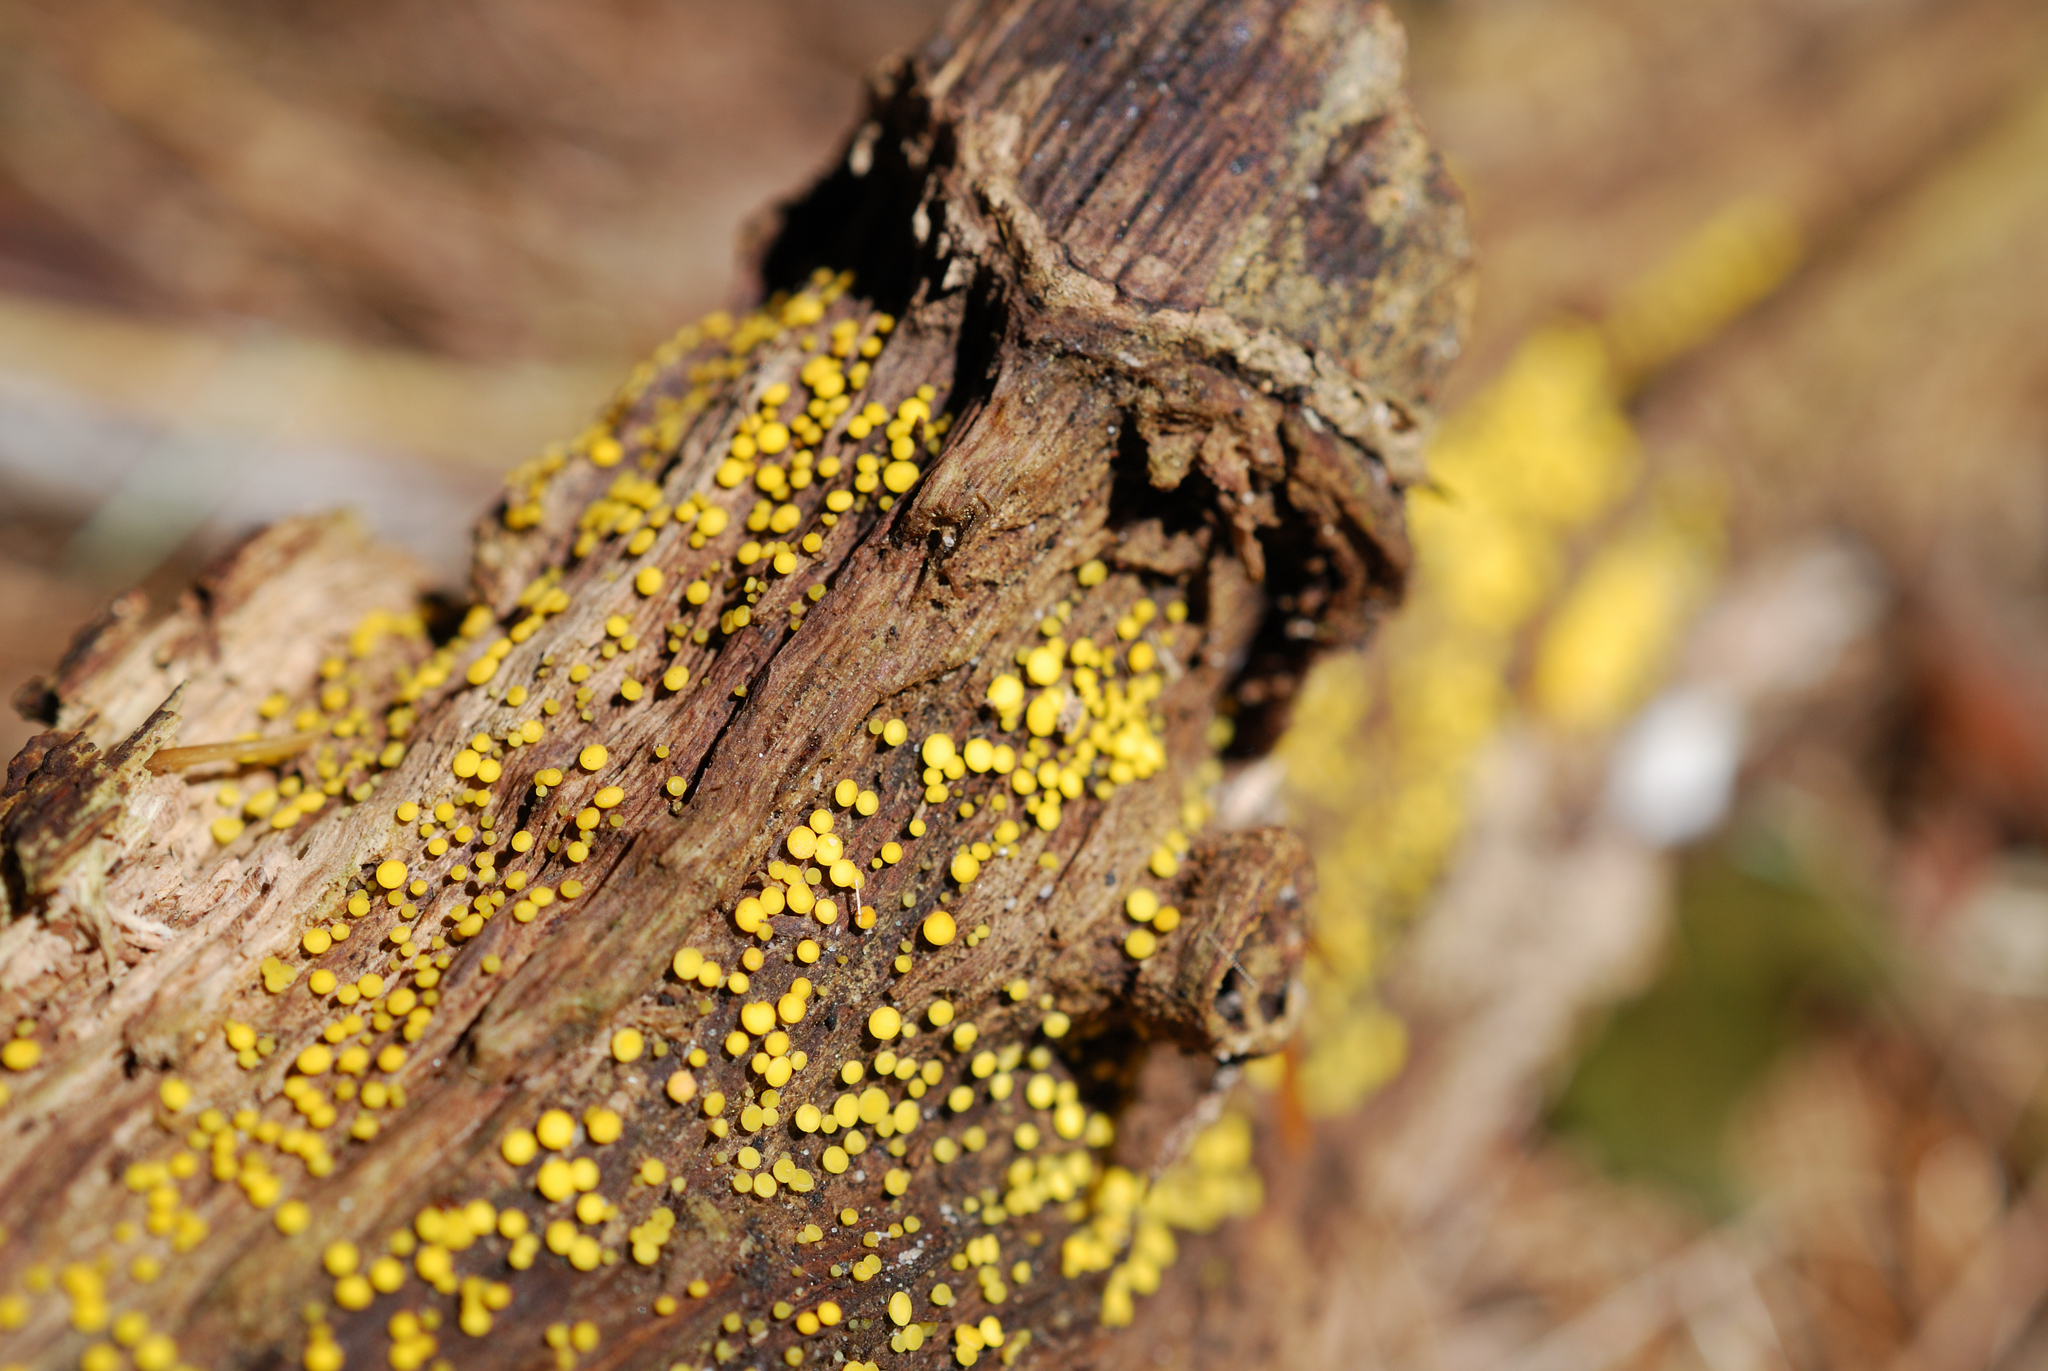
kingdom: Fungi
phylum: Ascomycota
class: Leotiomycetes
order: Helotiales
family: Pezizellaceae
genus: Calycina
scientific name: Calycina citrina
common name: Yellow fairy cups
